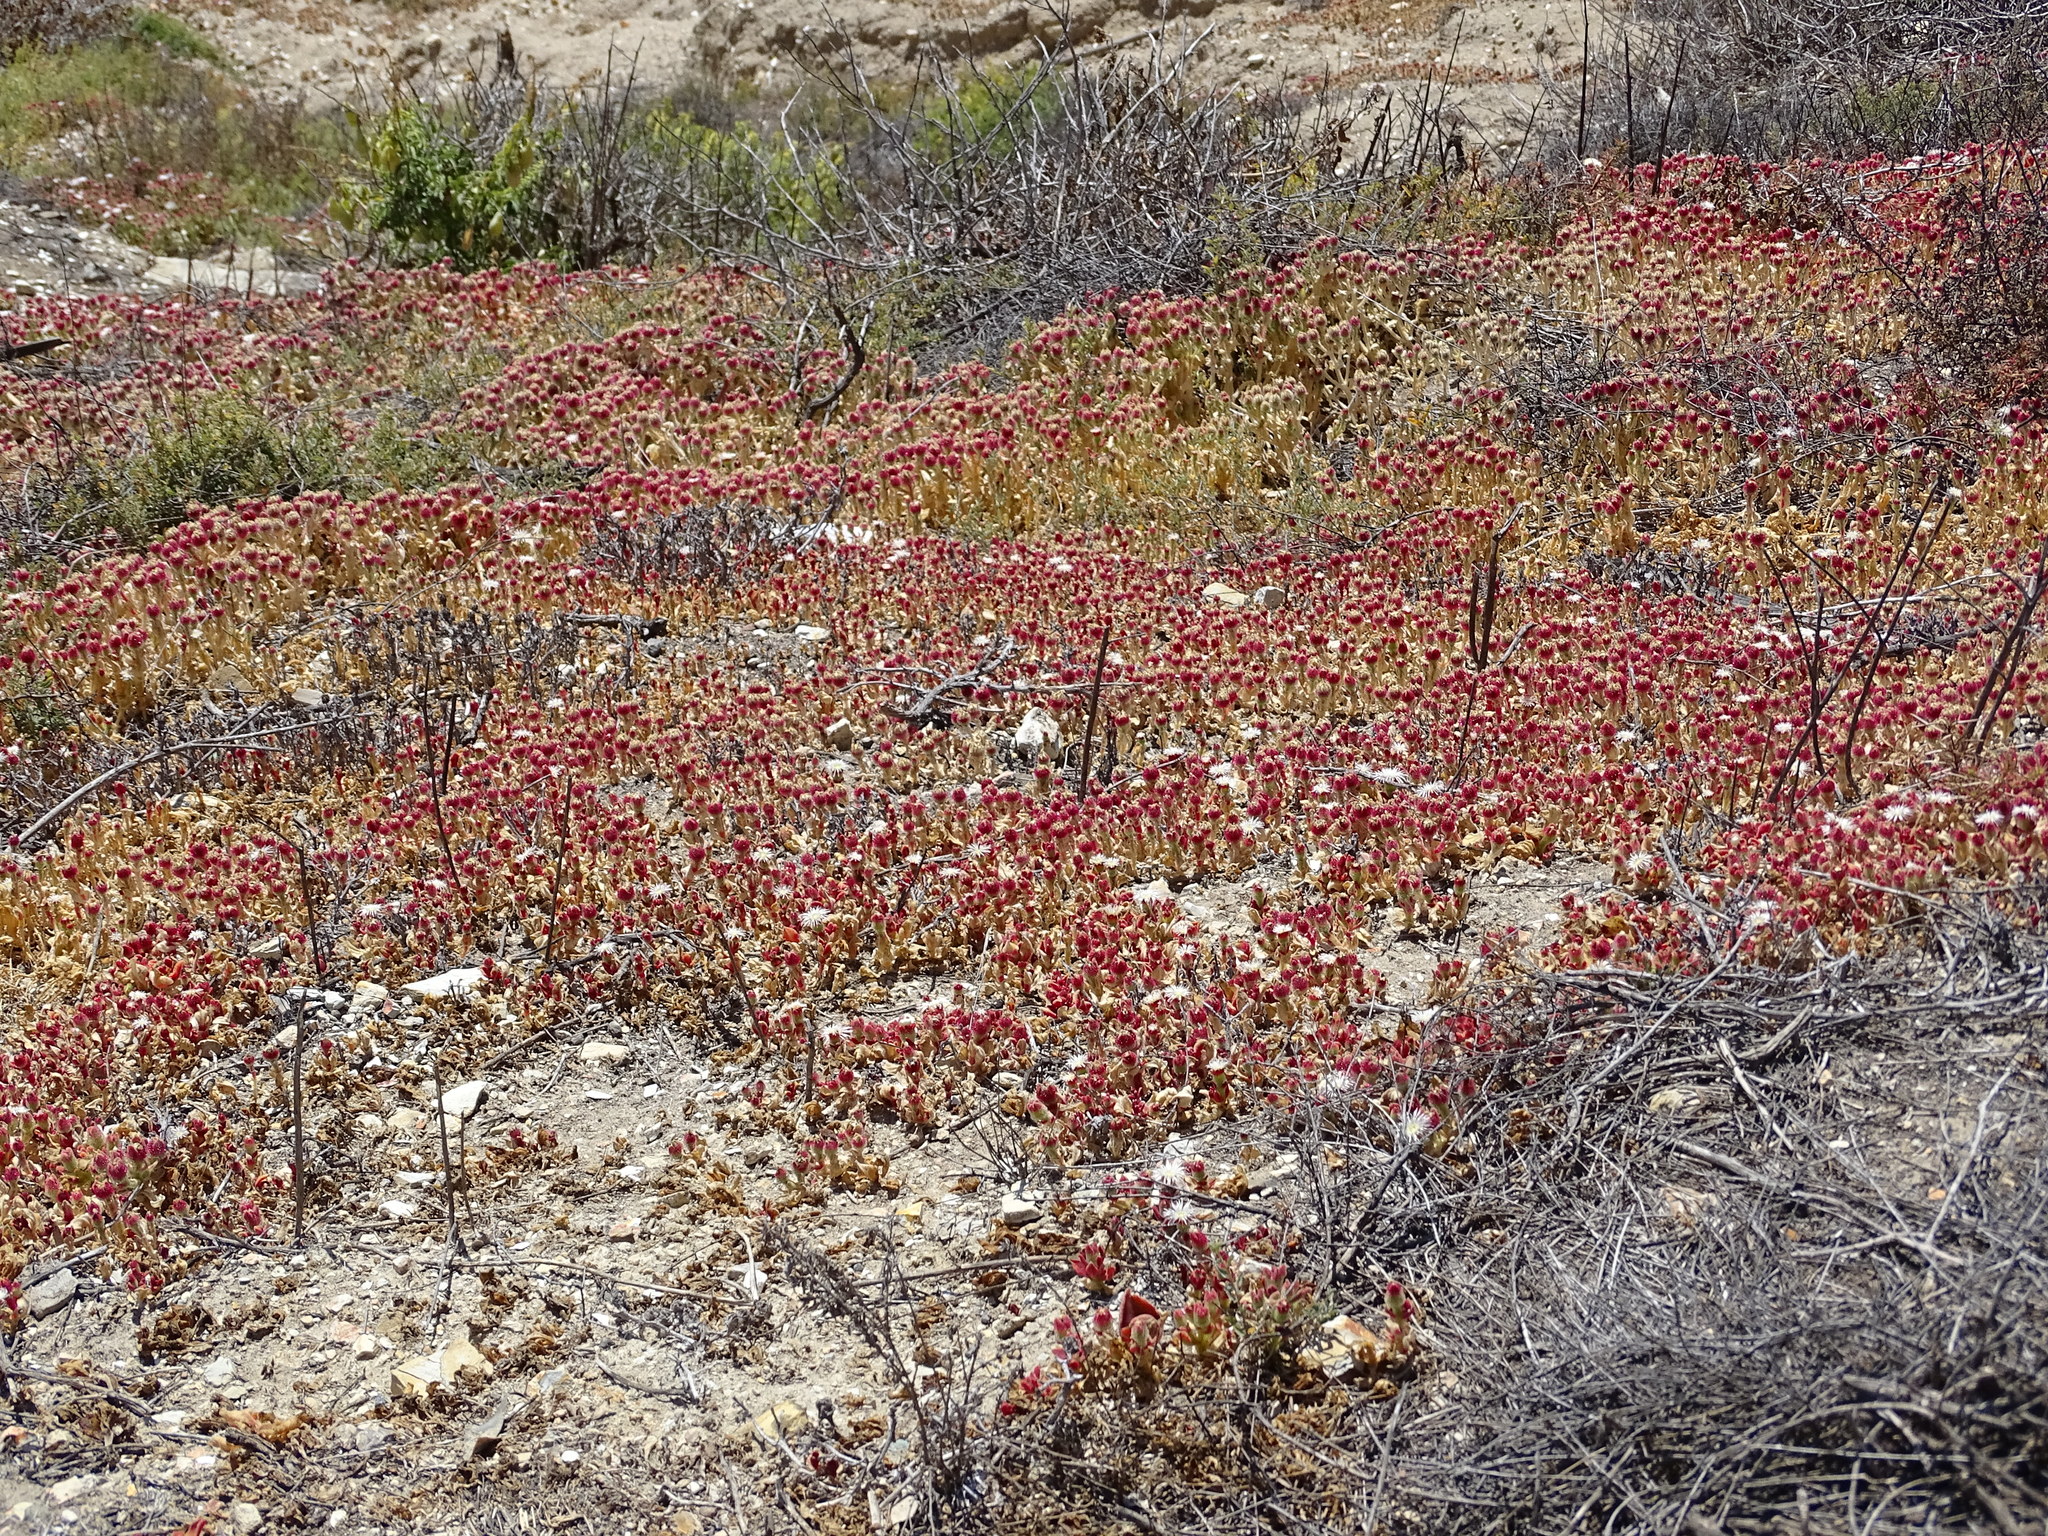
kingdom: Plantae
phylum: Tracheophyta
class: Magnoliopsida
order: Caryophyllales
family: Aizoaceae
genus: Mesembryanthemum
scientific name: Mesembryanthemum crystallinum
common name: Common iceplant
